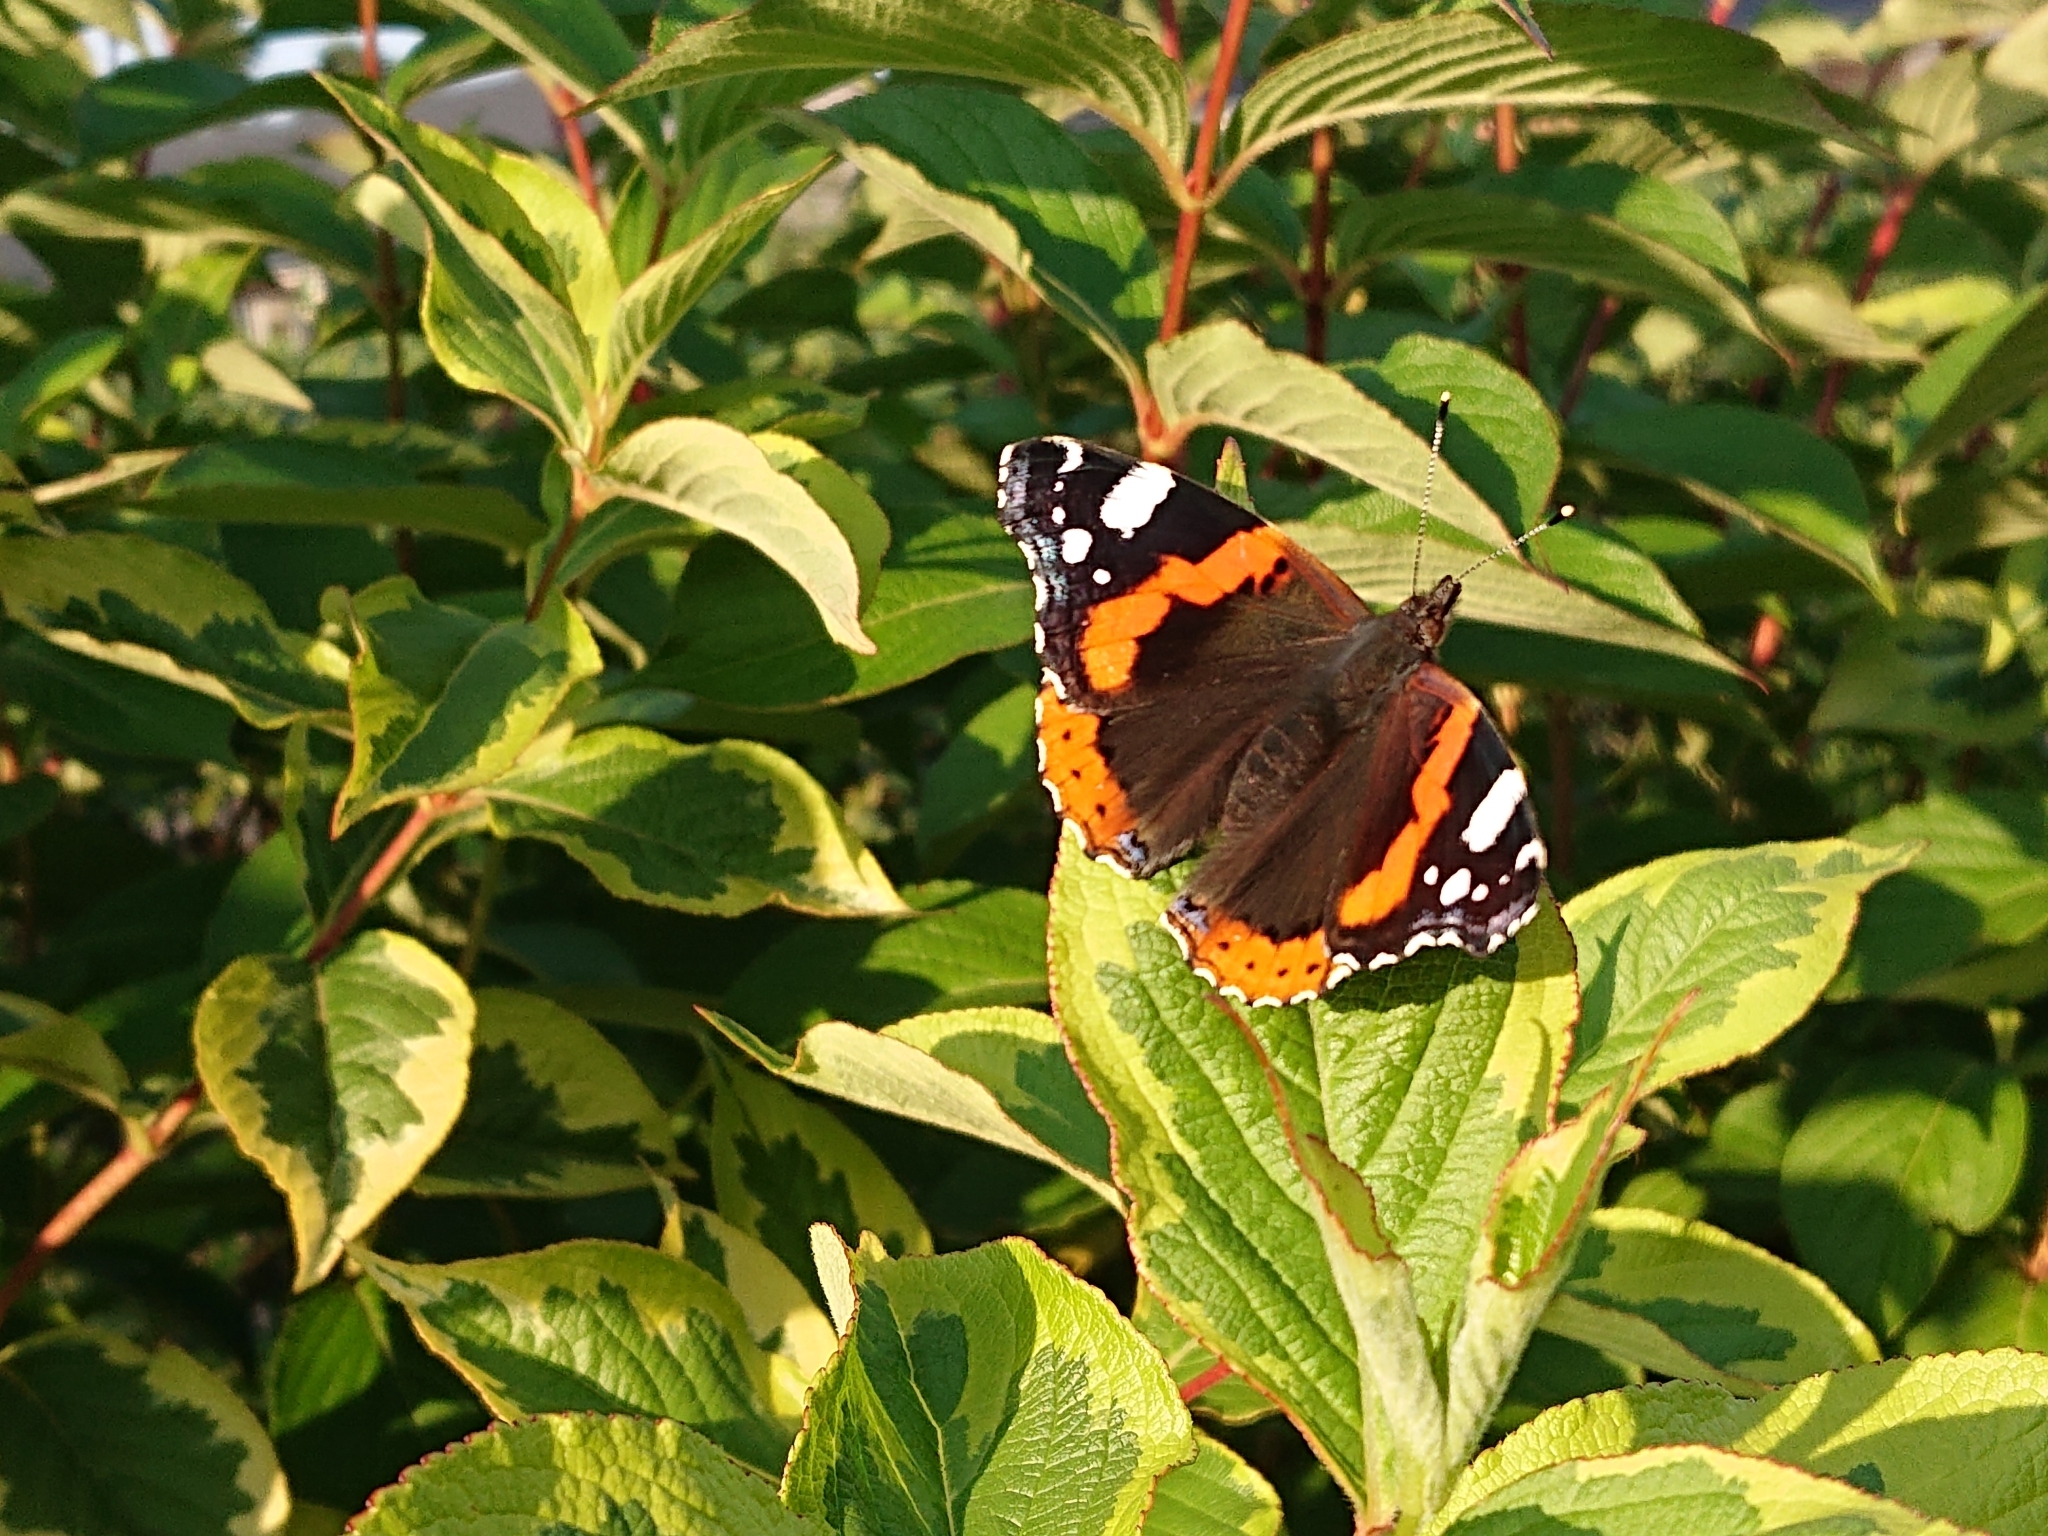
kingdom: Animalia
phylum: Arthropoda
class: Insecta
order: Lepidoptera
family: Nymphalidae
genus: Vanessa
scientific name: Vanessa atalanta
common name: Red admiral
